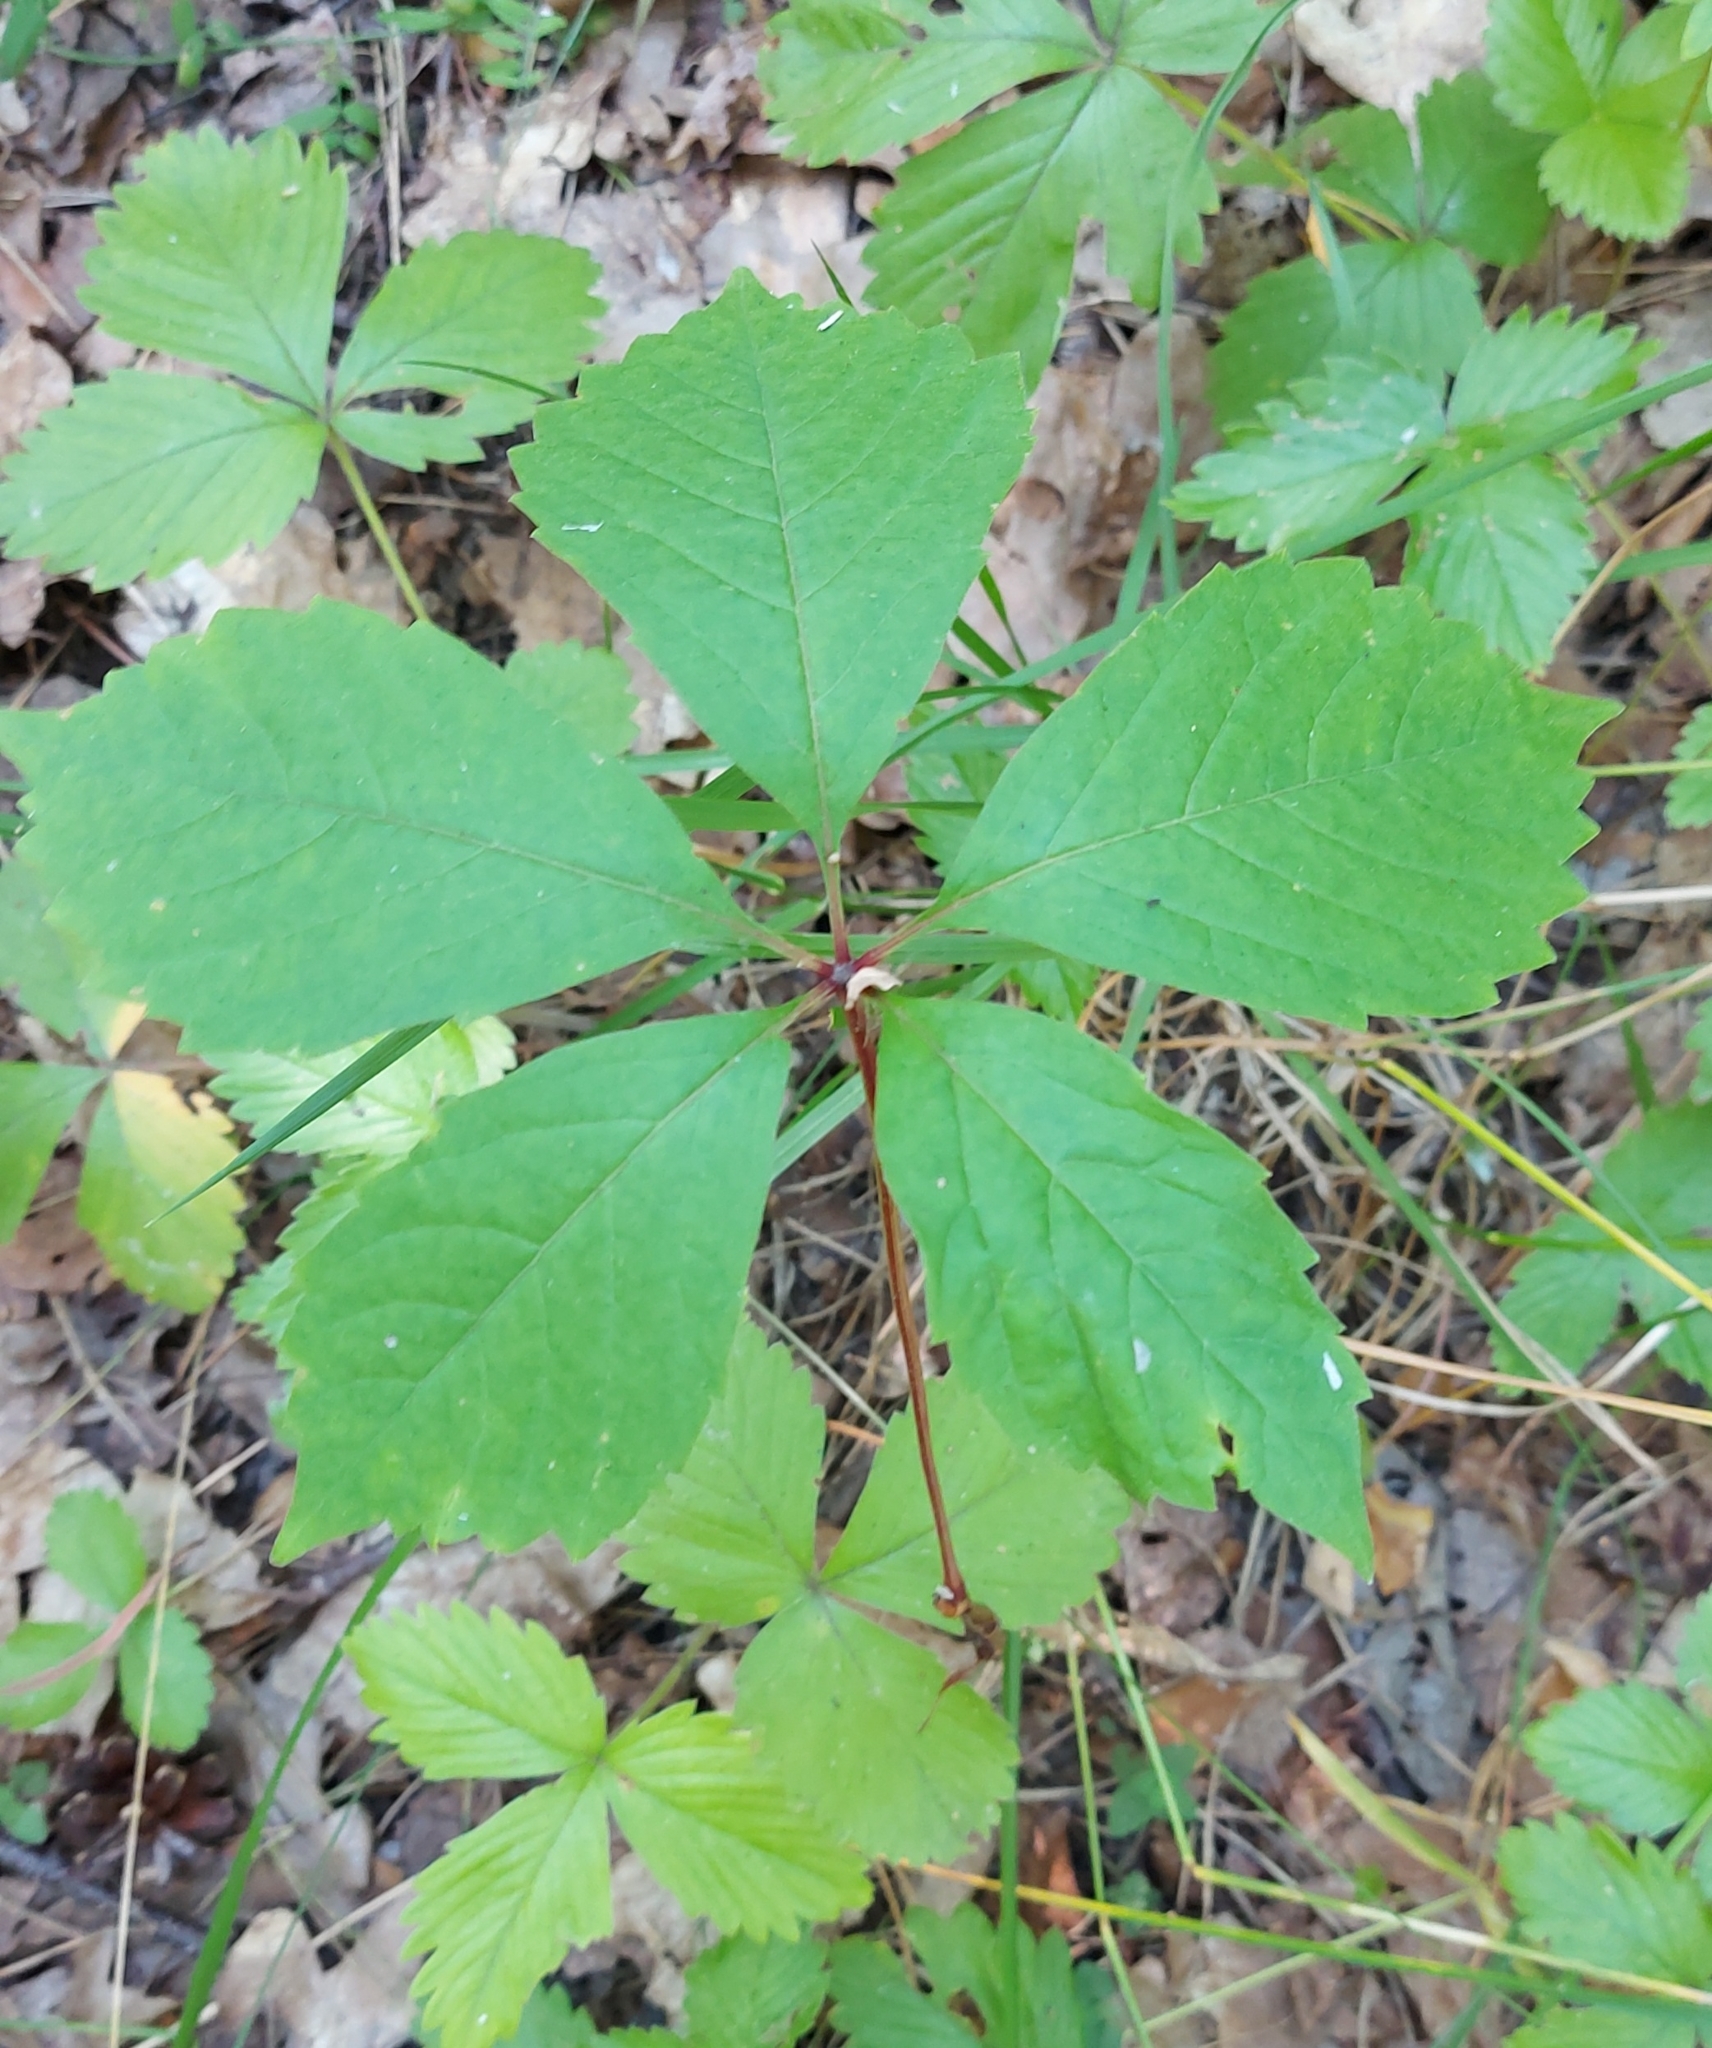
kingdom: Plantae
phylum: Tracheophyta
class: Magnoliopsida
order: Vitales
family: Vitaceae
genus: Parthenocissus
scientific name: Parthenocissus inserta
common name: False virginia-creeper
